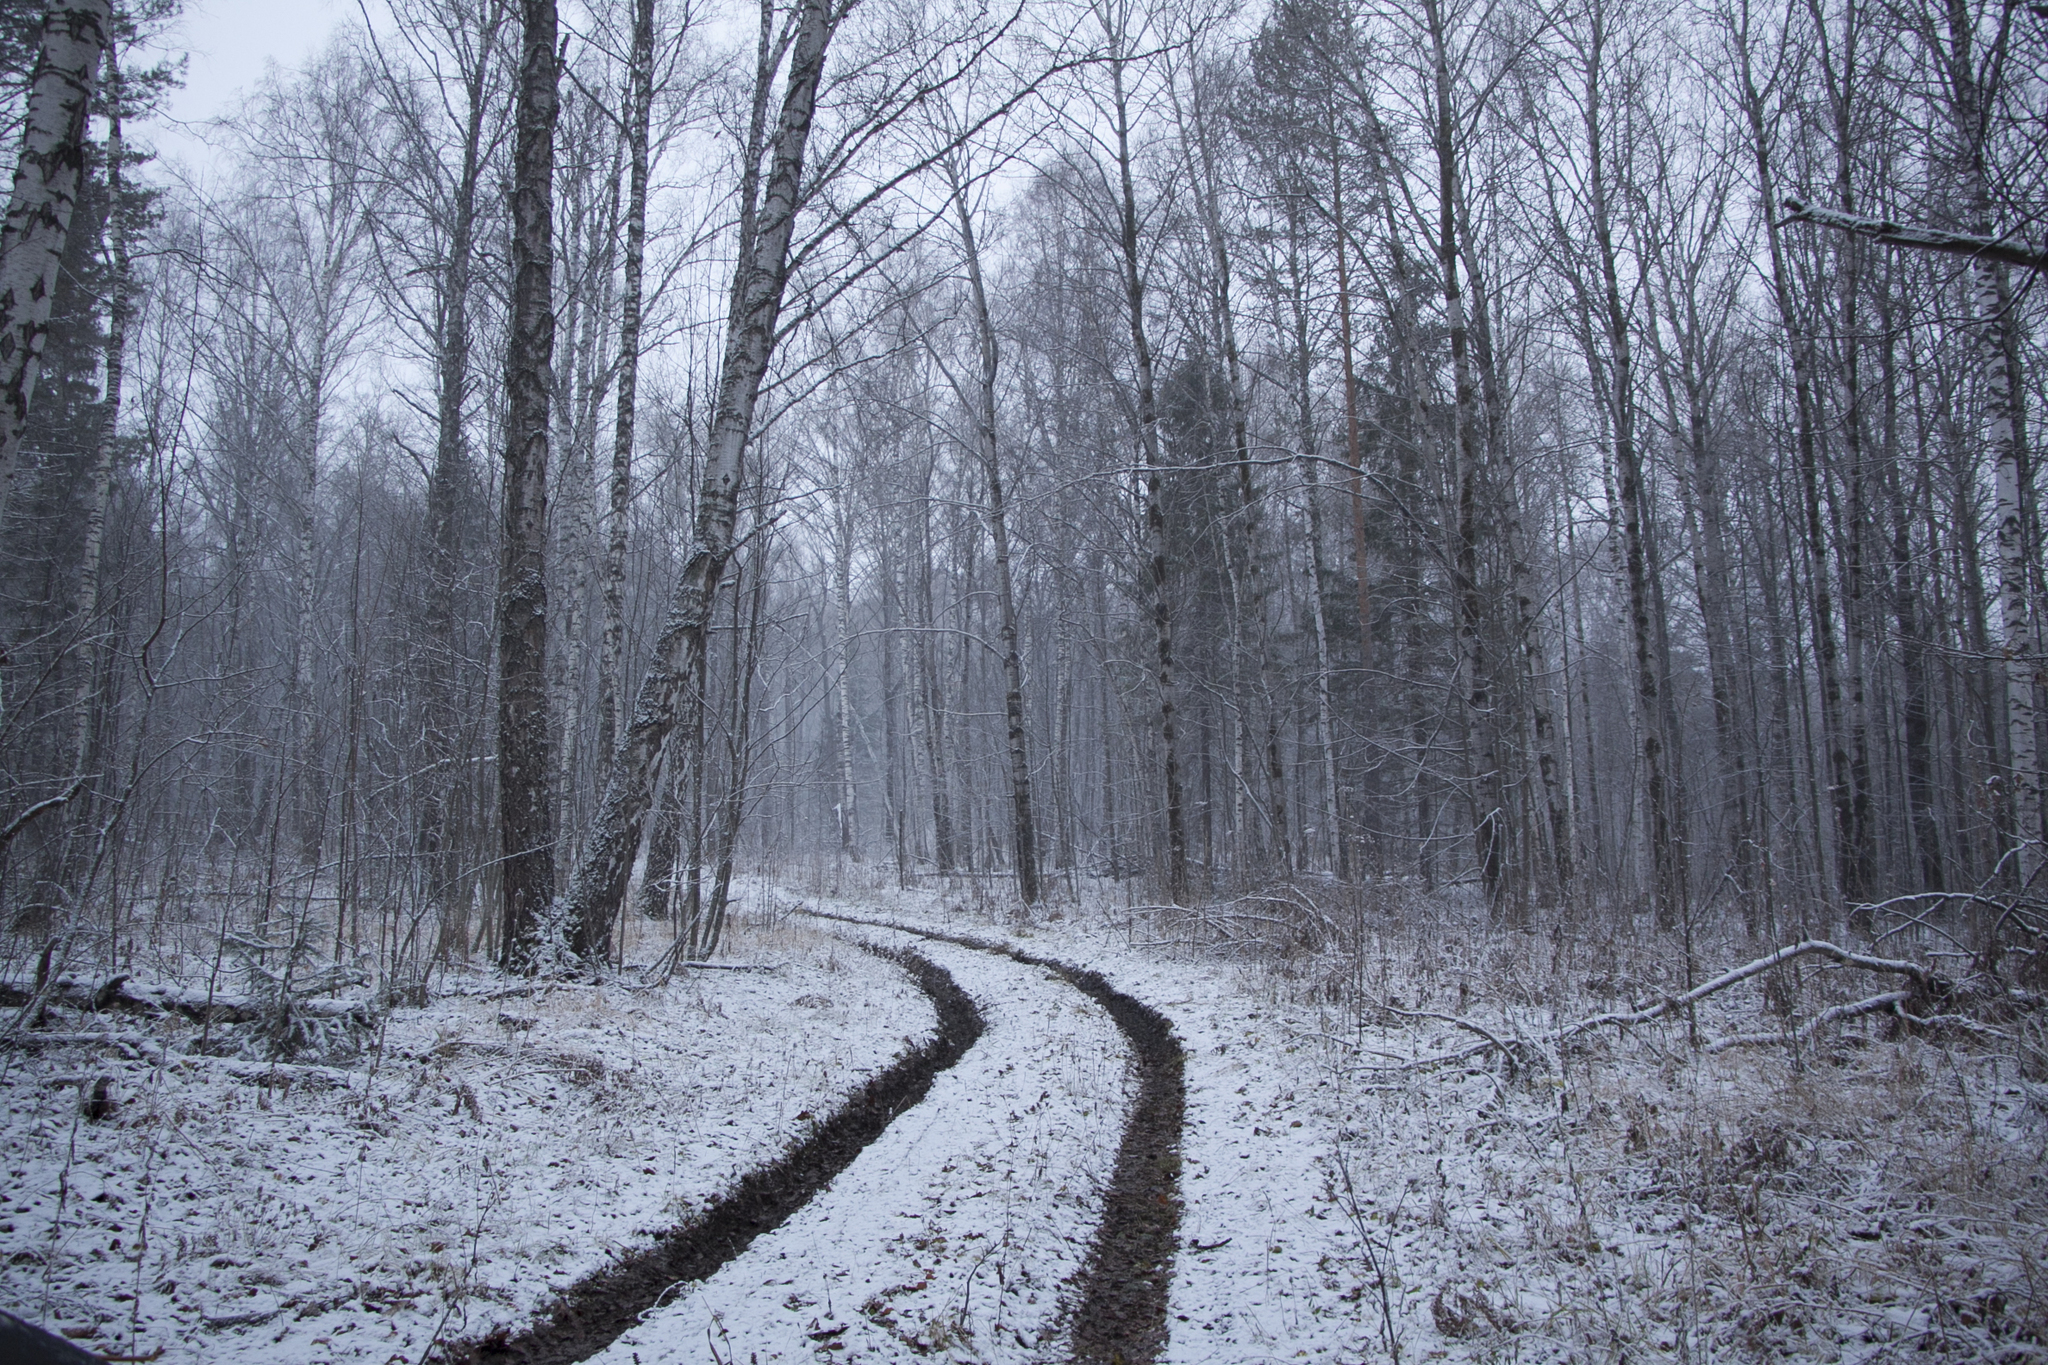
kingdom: Plantae
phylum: Tracheophyta
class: Magnoliopsida
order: Fagales
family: Betulaceae
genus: Betula
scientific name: Betula pendula
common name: Silver birch
